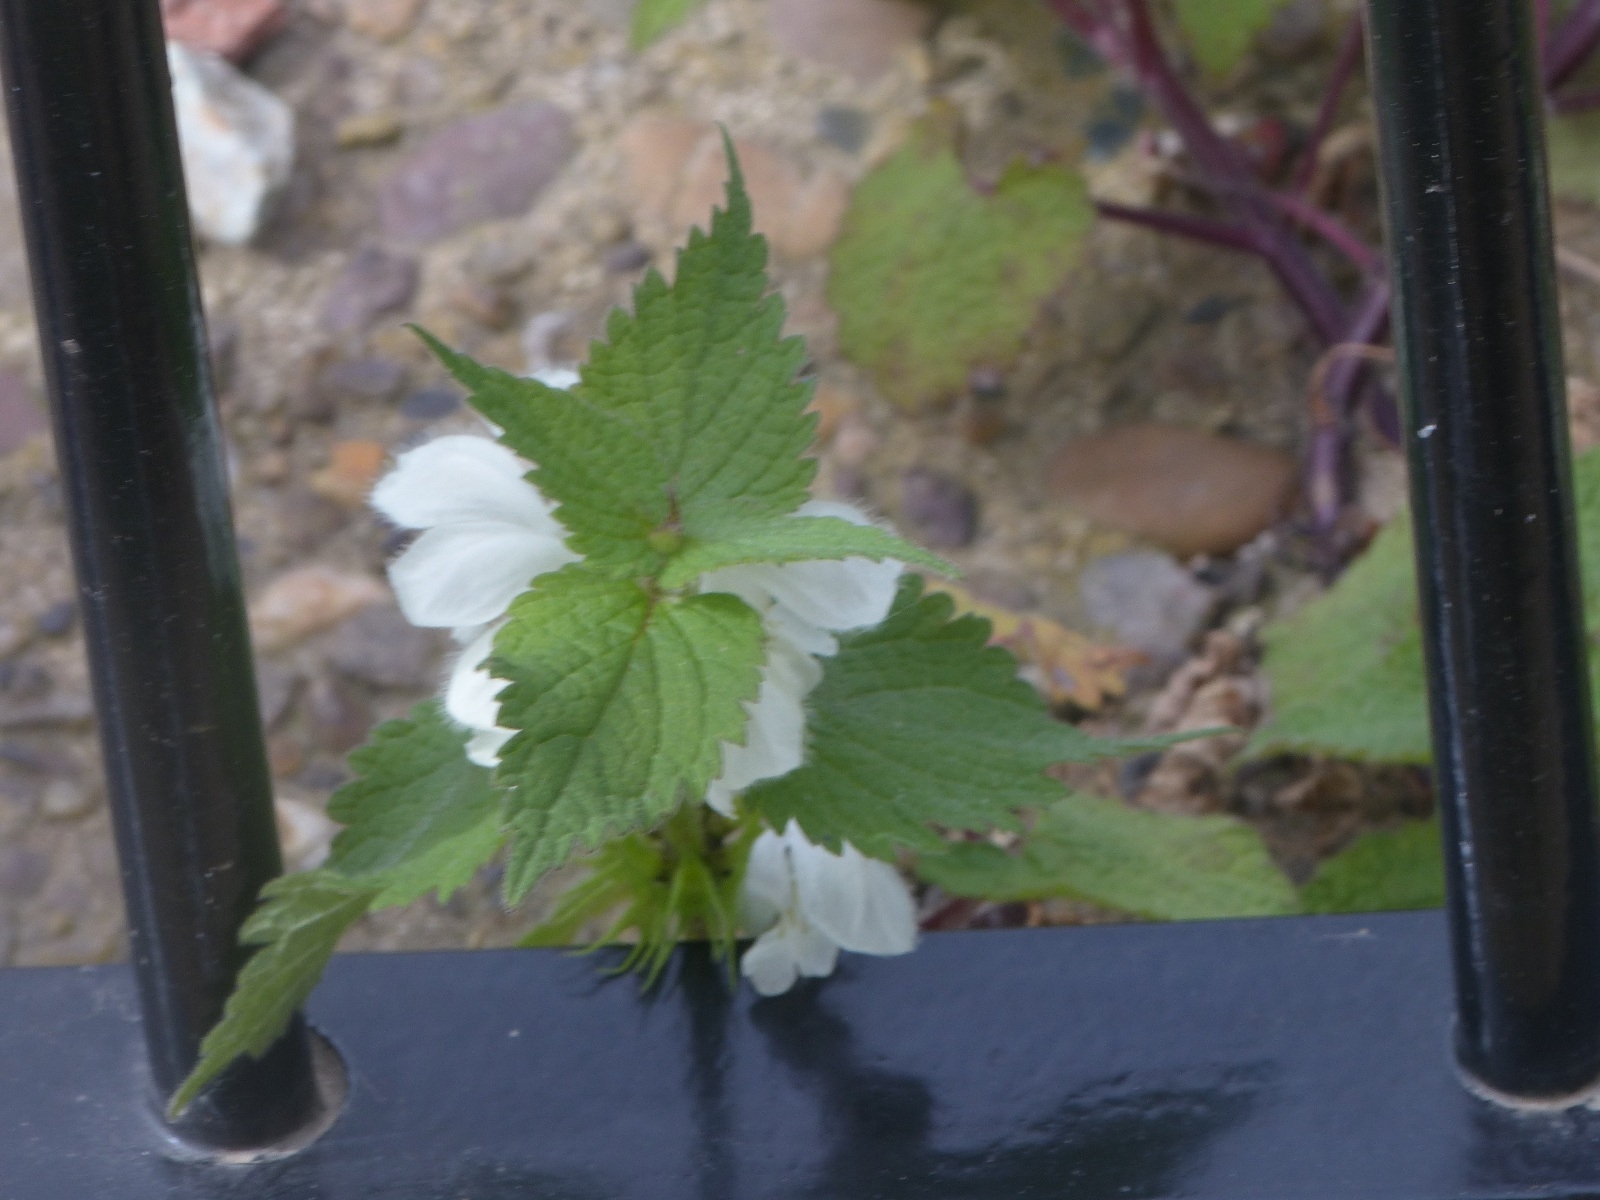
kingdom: Plantae
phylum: Tracheophyta
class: Magnoliopsida
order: Lamiales
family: Lamiaceae
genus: Lamium
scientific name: Lamium album
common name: White dead-nettle
